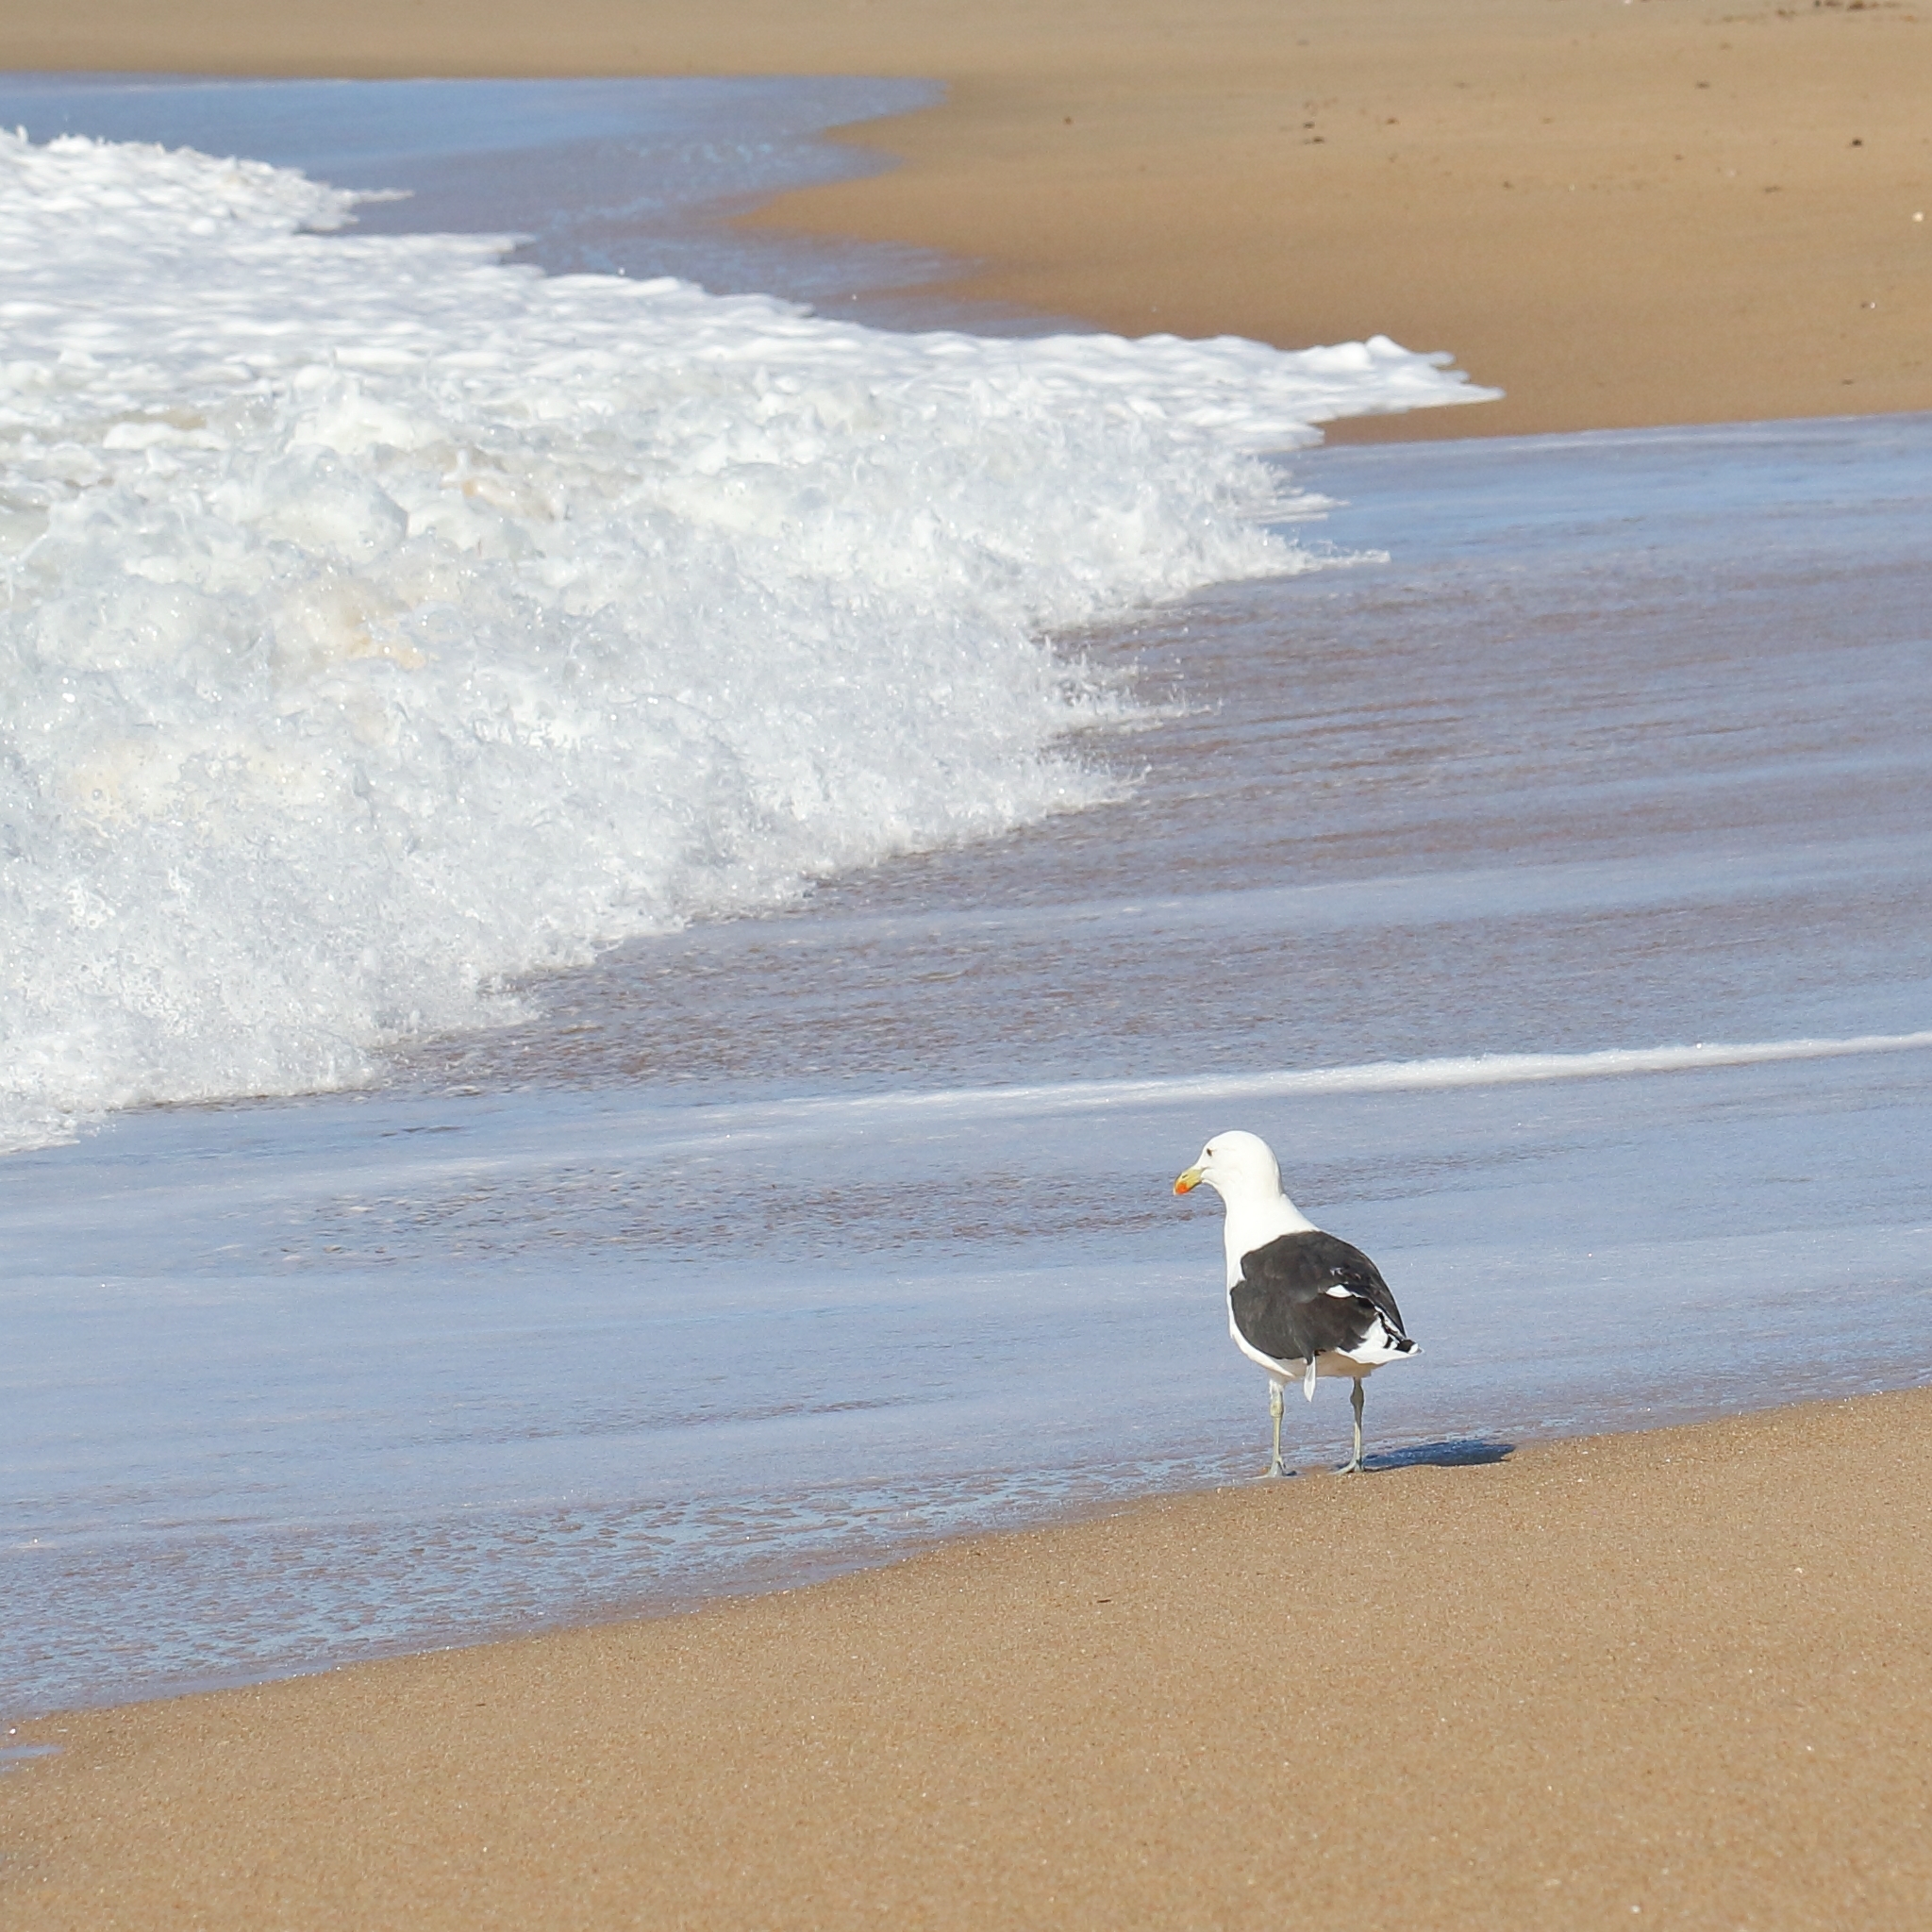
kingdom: Animalia
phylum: Chordata
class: Aves
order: Charadriiformes
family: Laridae
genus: Larus
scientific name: Larus dominicanus
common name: Kelp gull
